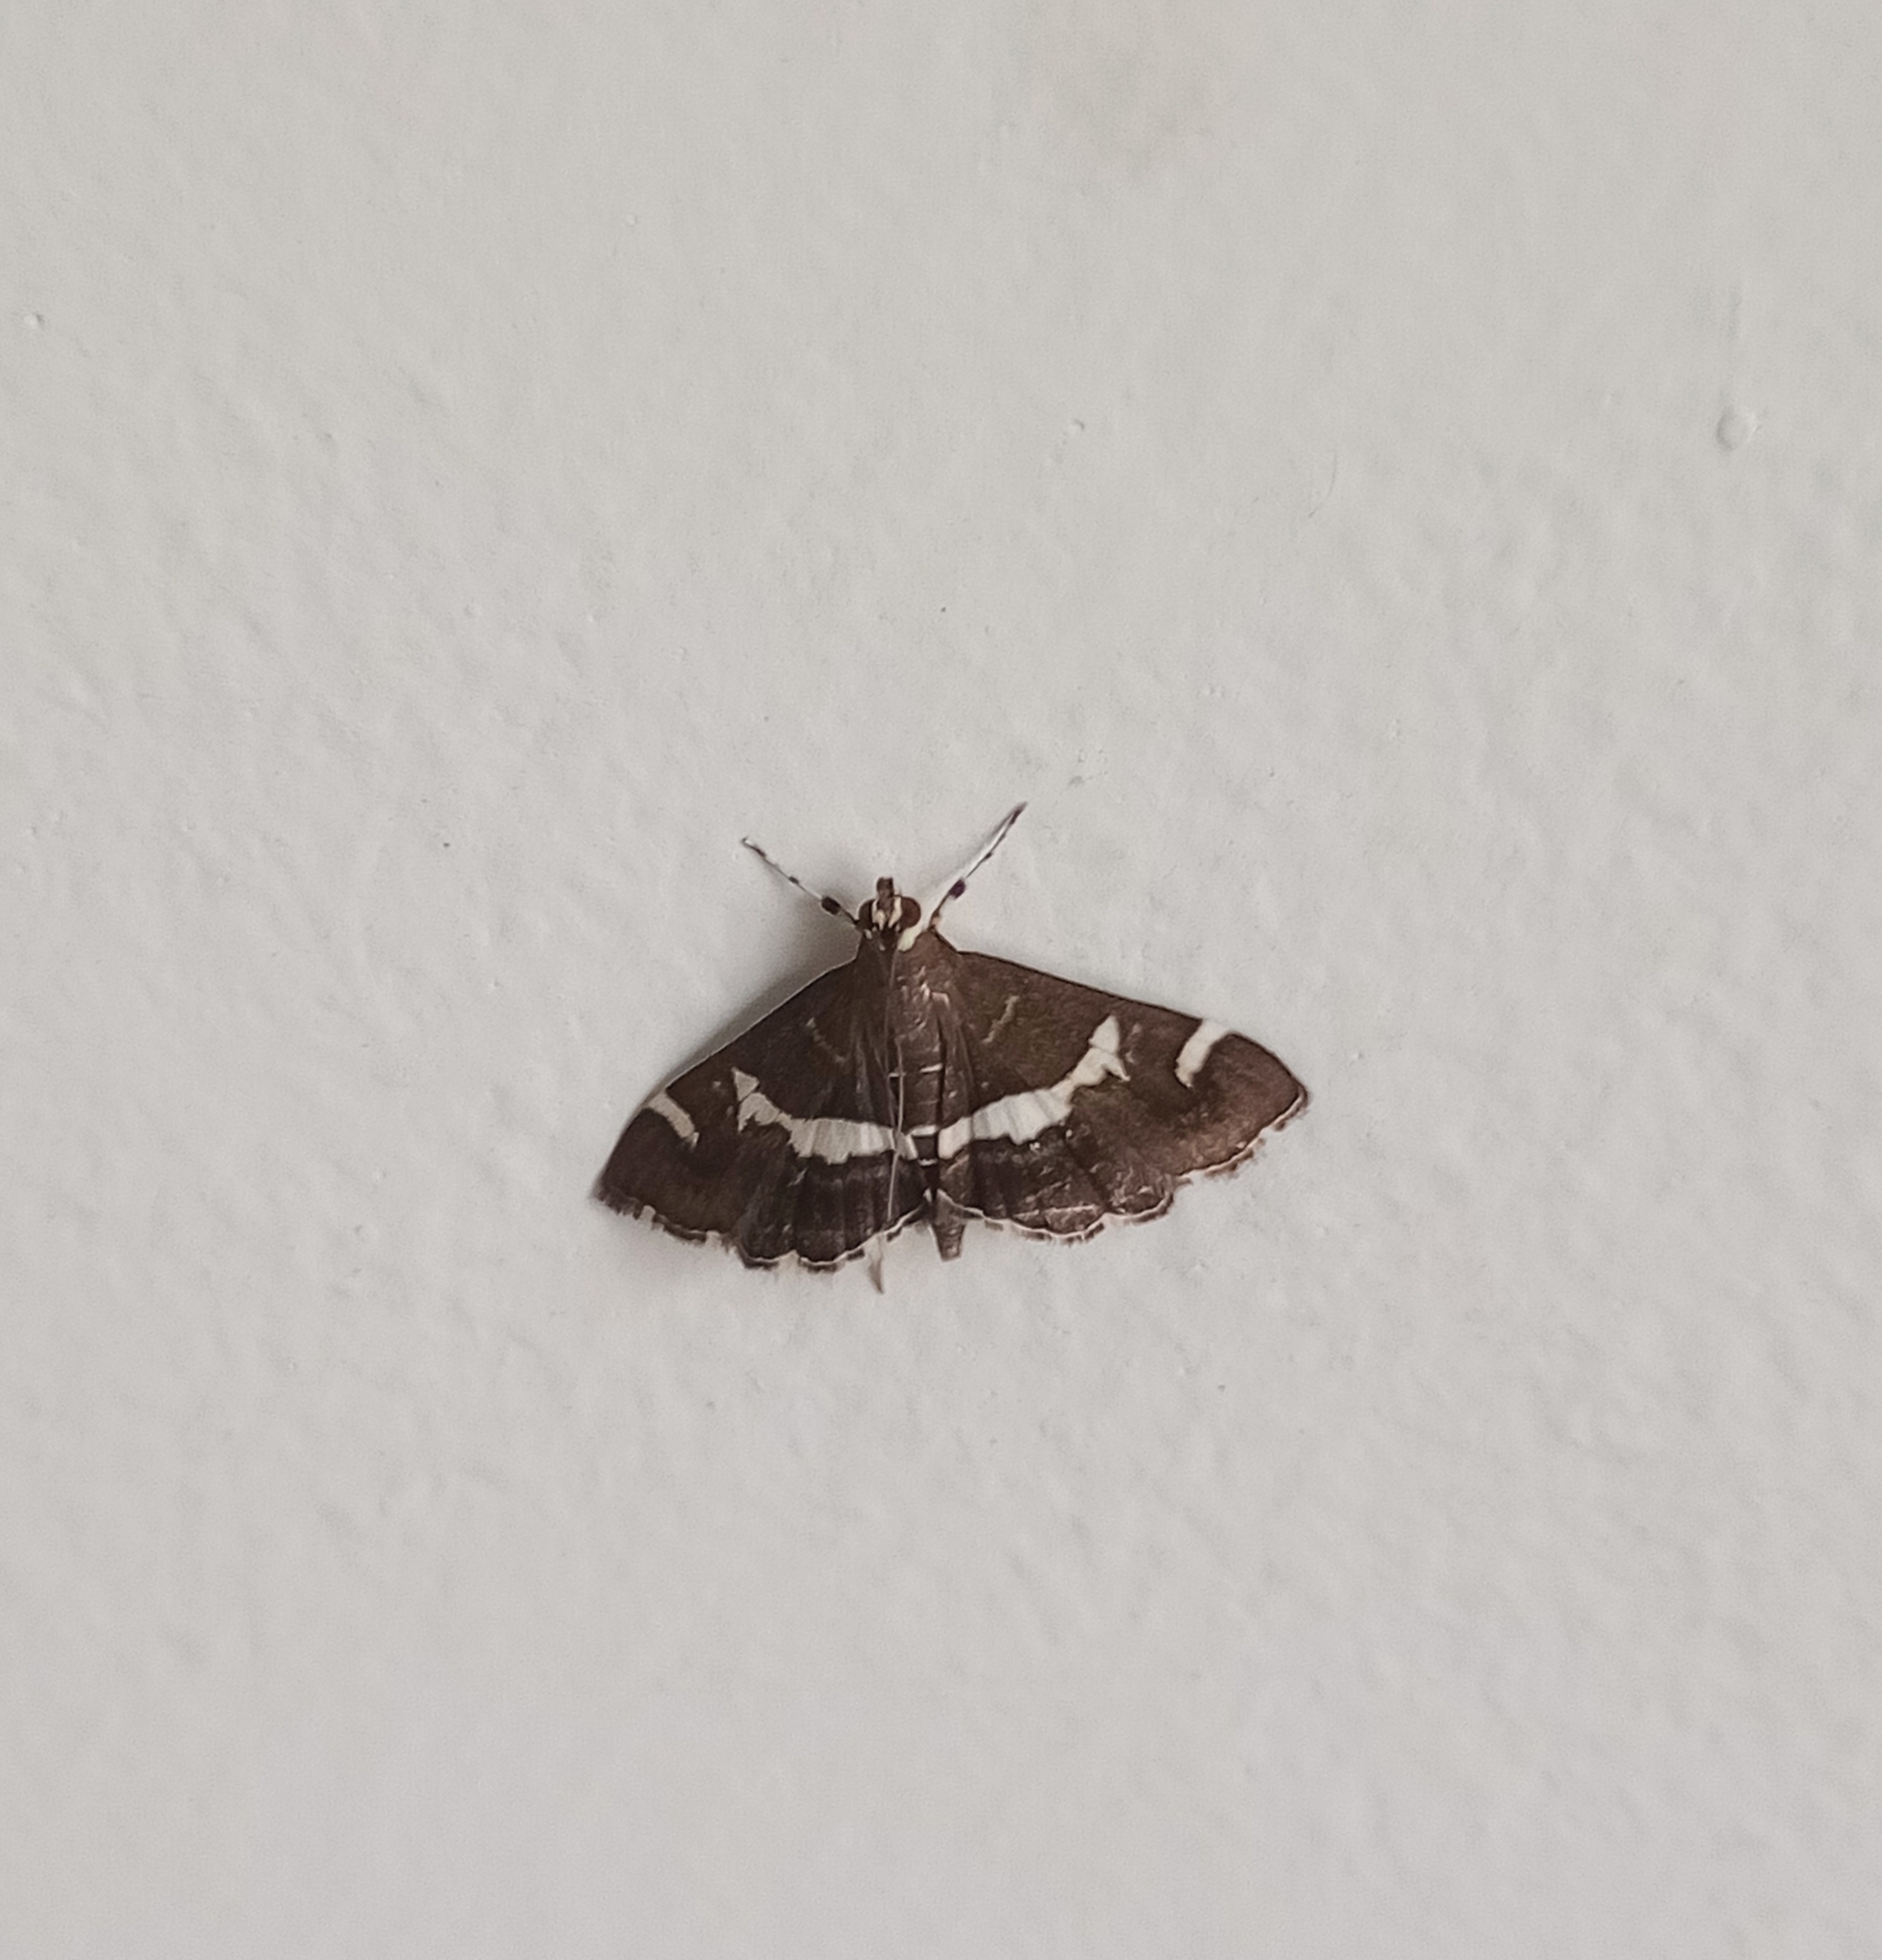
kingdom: Animalia
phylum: Arthropoda
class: Insecta
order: Lepidoptera
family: Crambidae
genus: Spoladea
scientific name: Spoladea recurvalis
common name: Beet webworm moth
